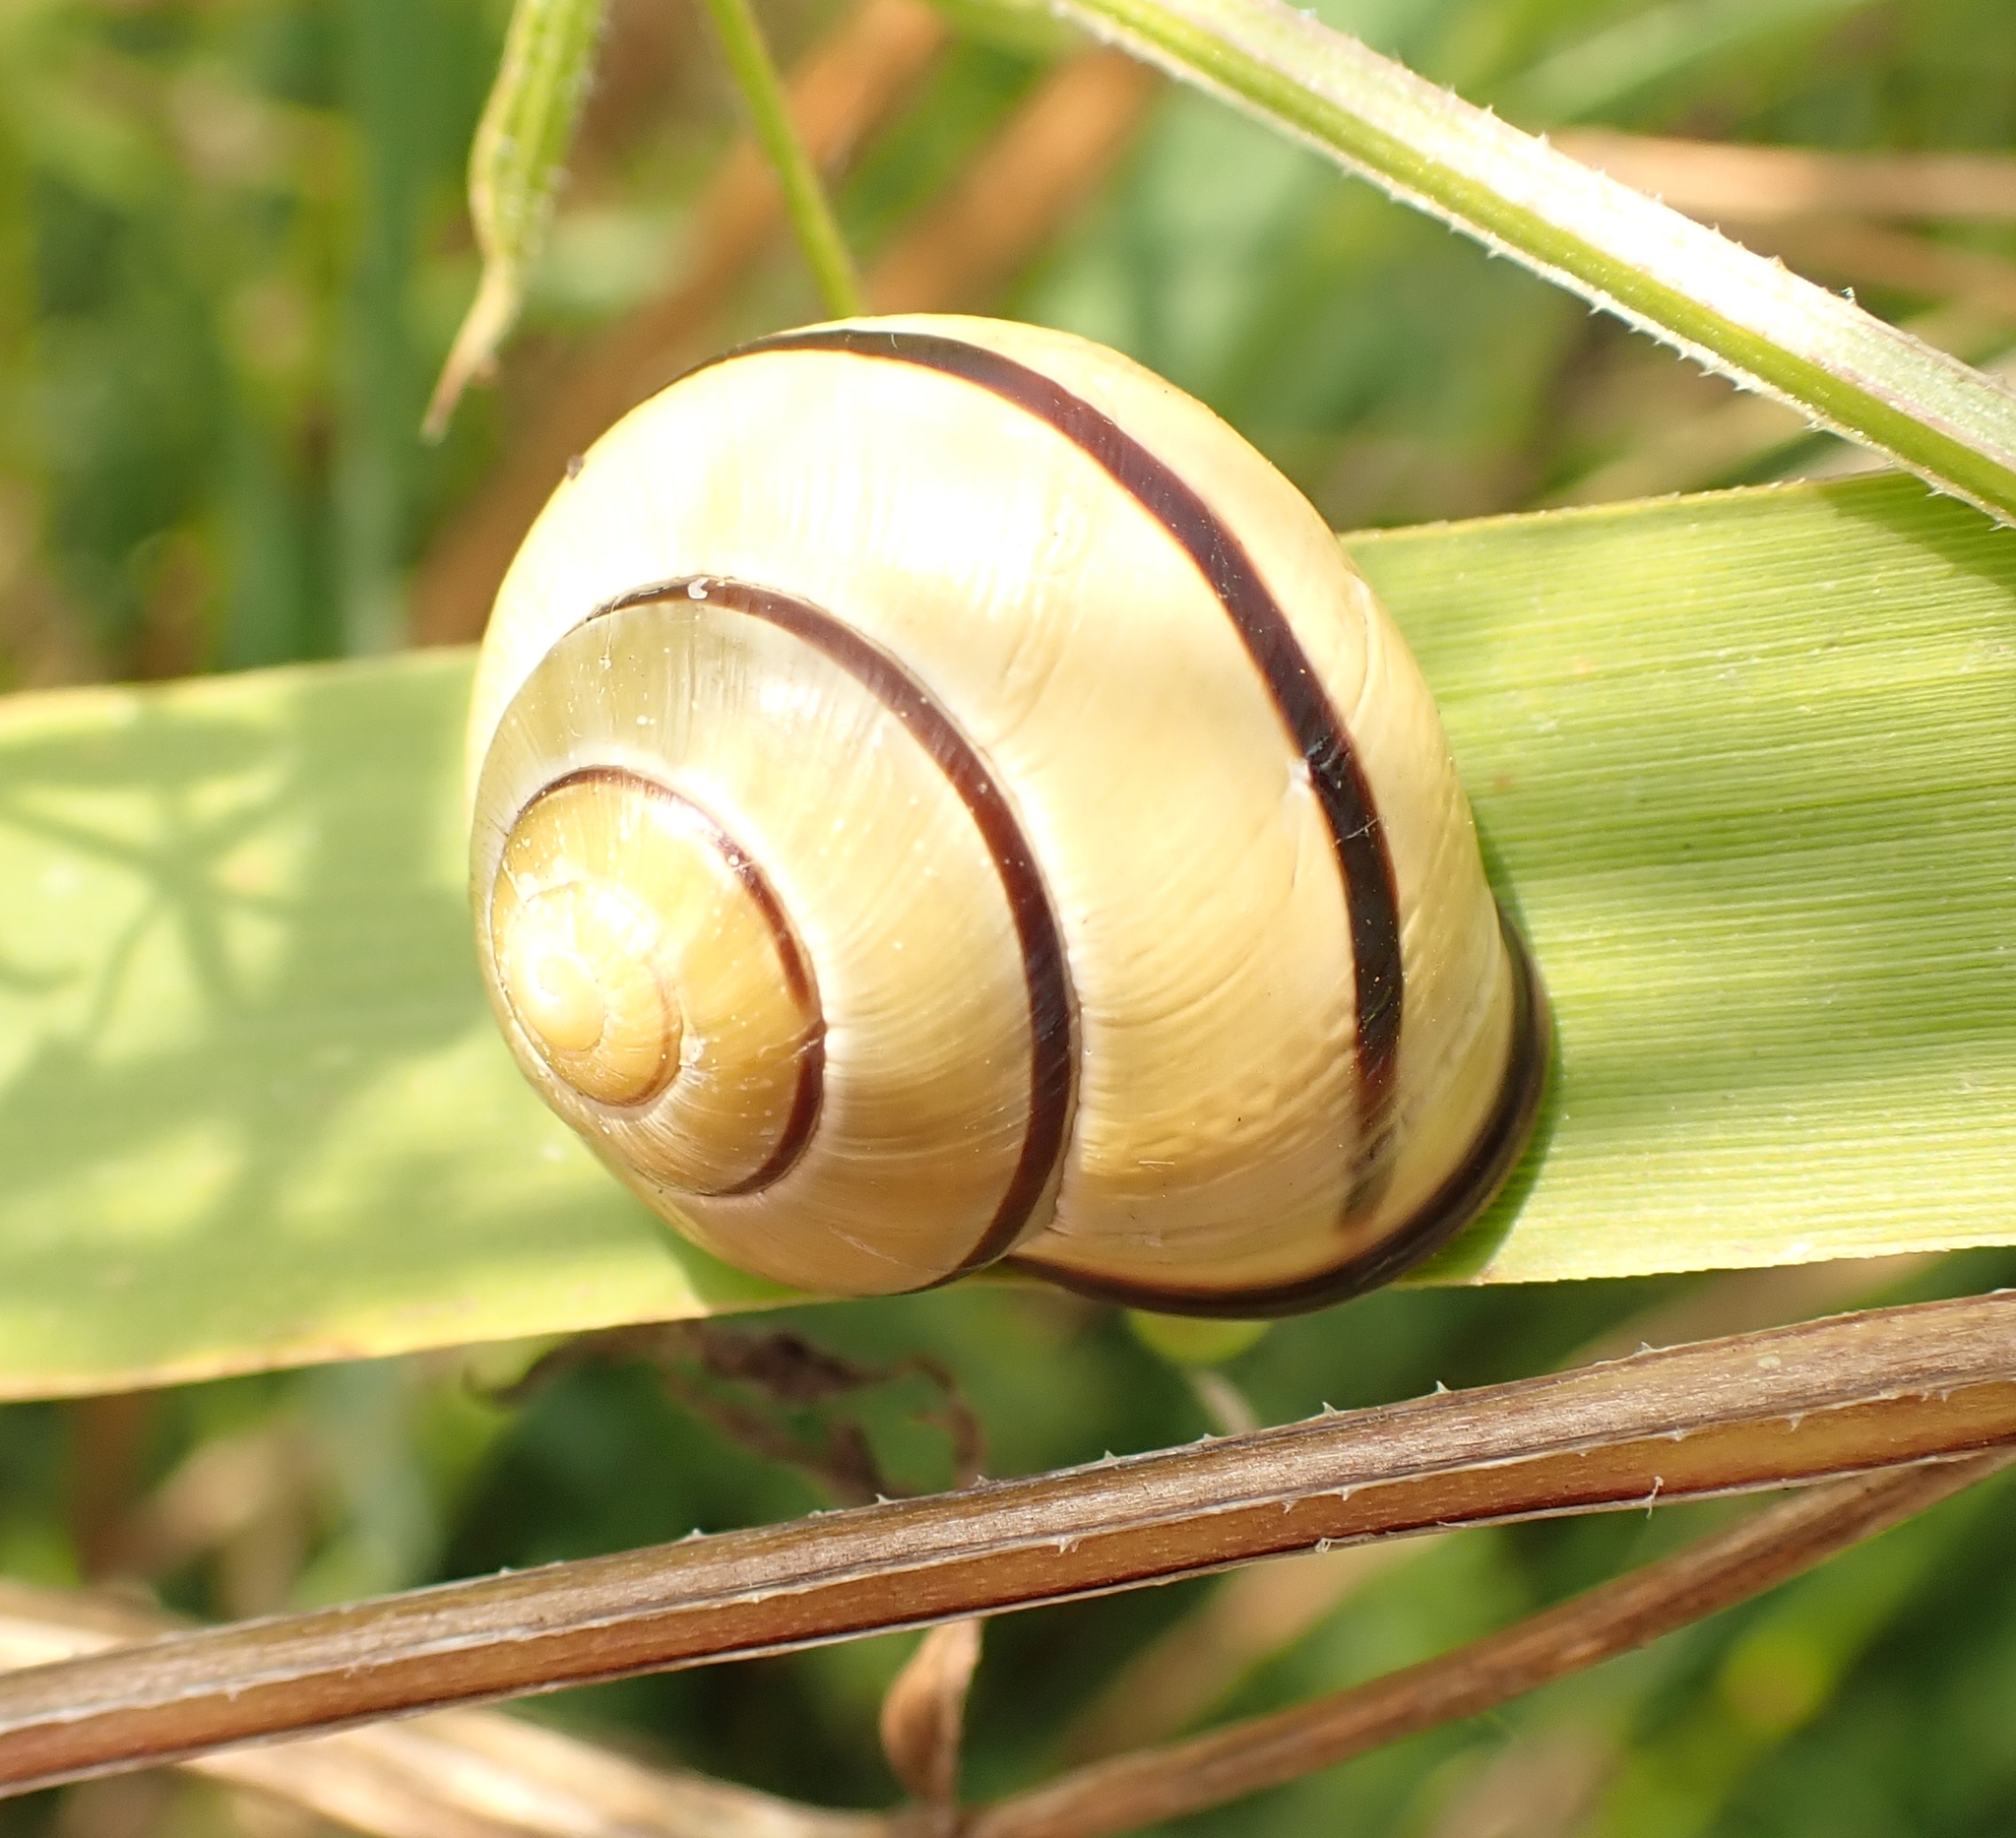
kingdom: Animalia
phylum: Mollusca
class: Gastropoda
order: Stylommatophora
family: Helicidae
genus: Cepaea
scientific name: Cepaea nemoralis
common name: Grovesnail
